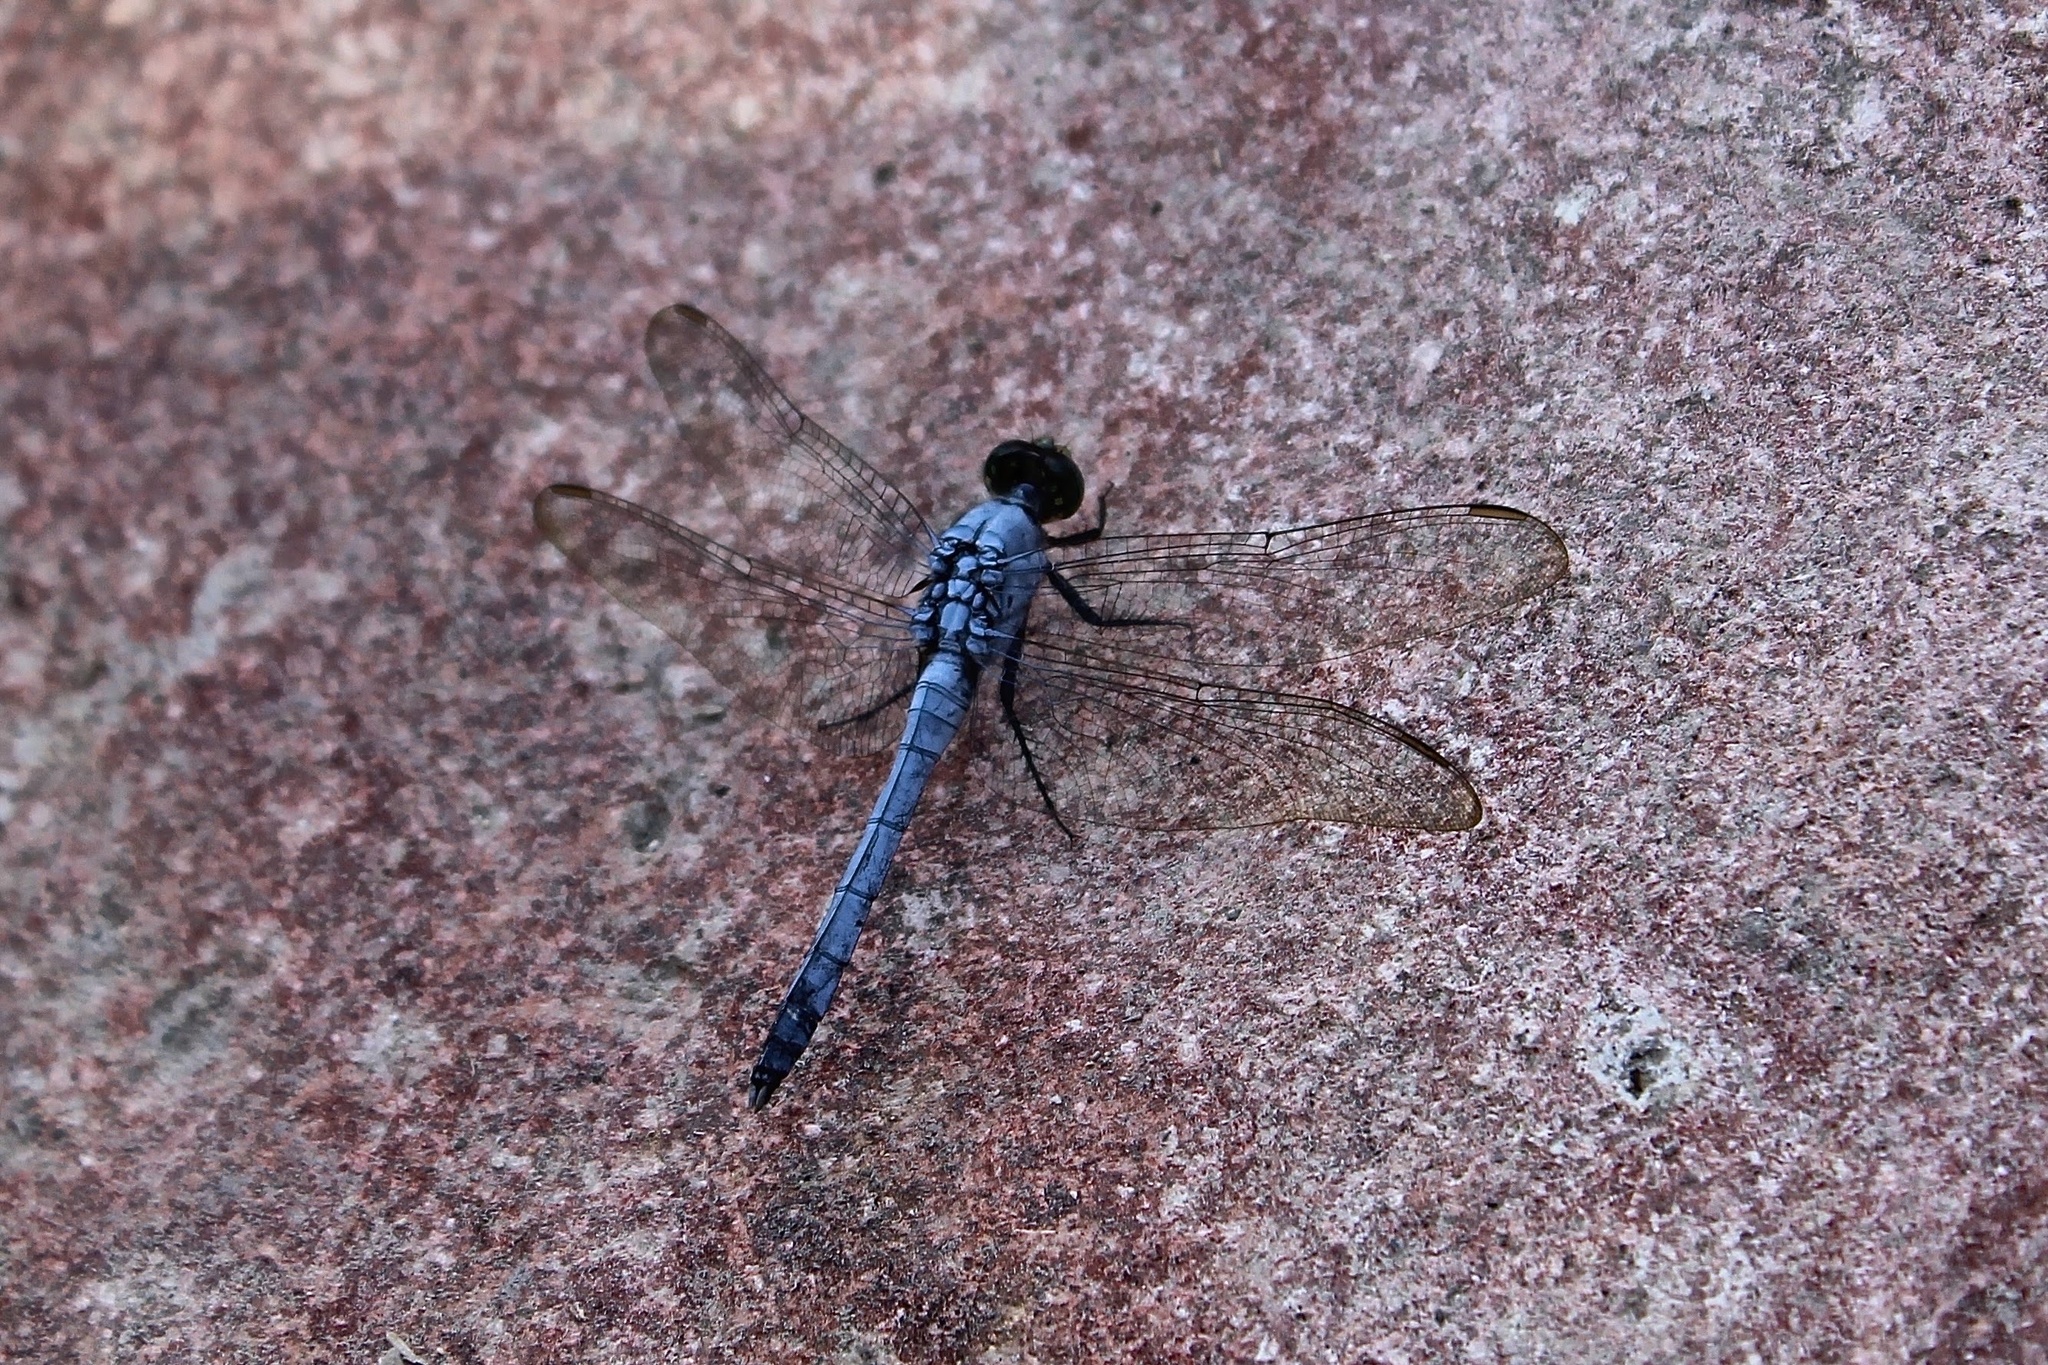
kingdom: Animalia
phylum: Arthropoda
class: Insecta
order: Odonata
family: Libellulidae
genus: Erythemis
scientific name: Erythemis collocata
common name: Western pondhawk
